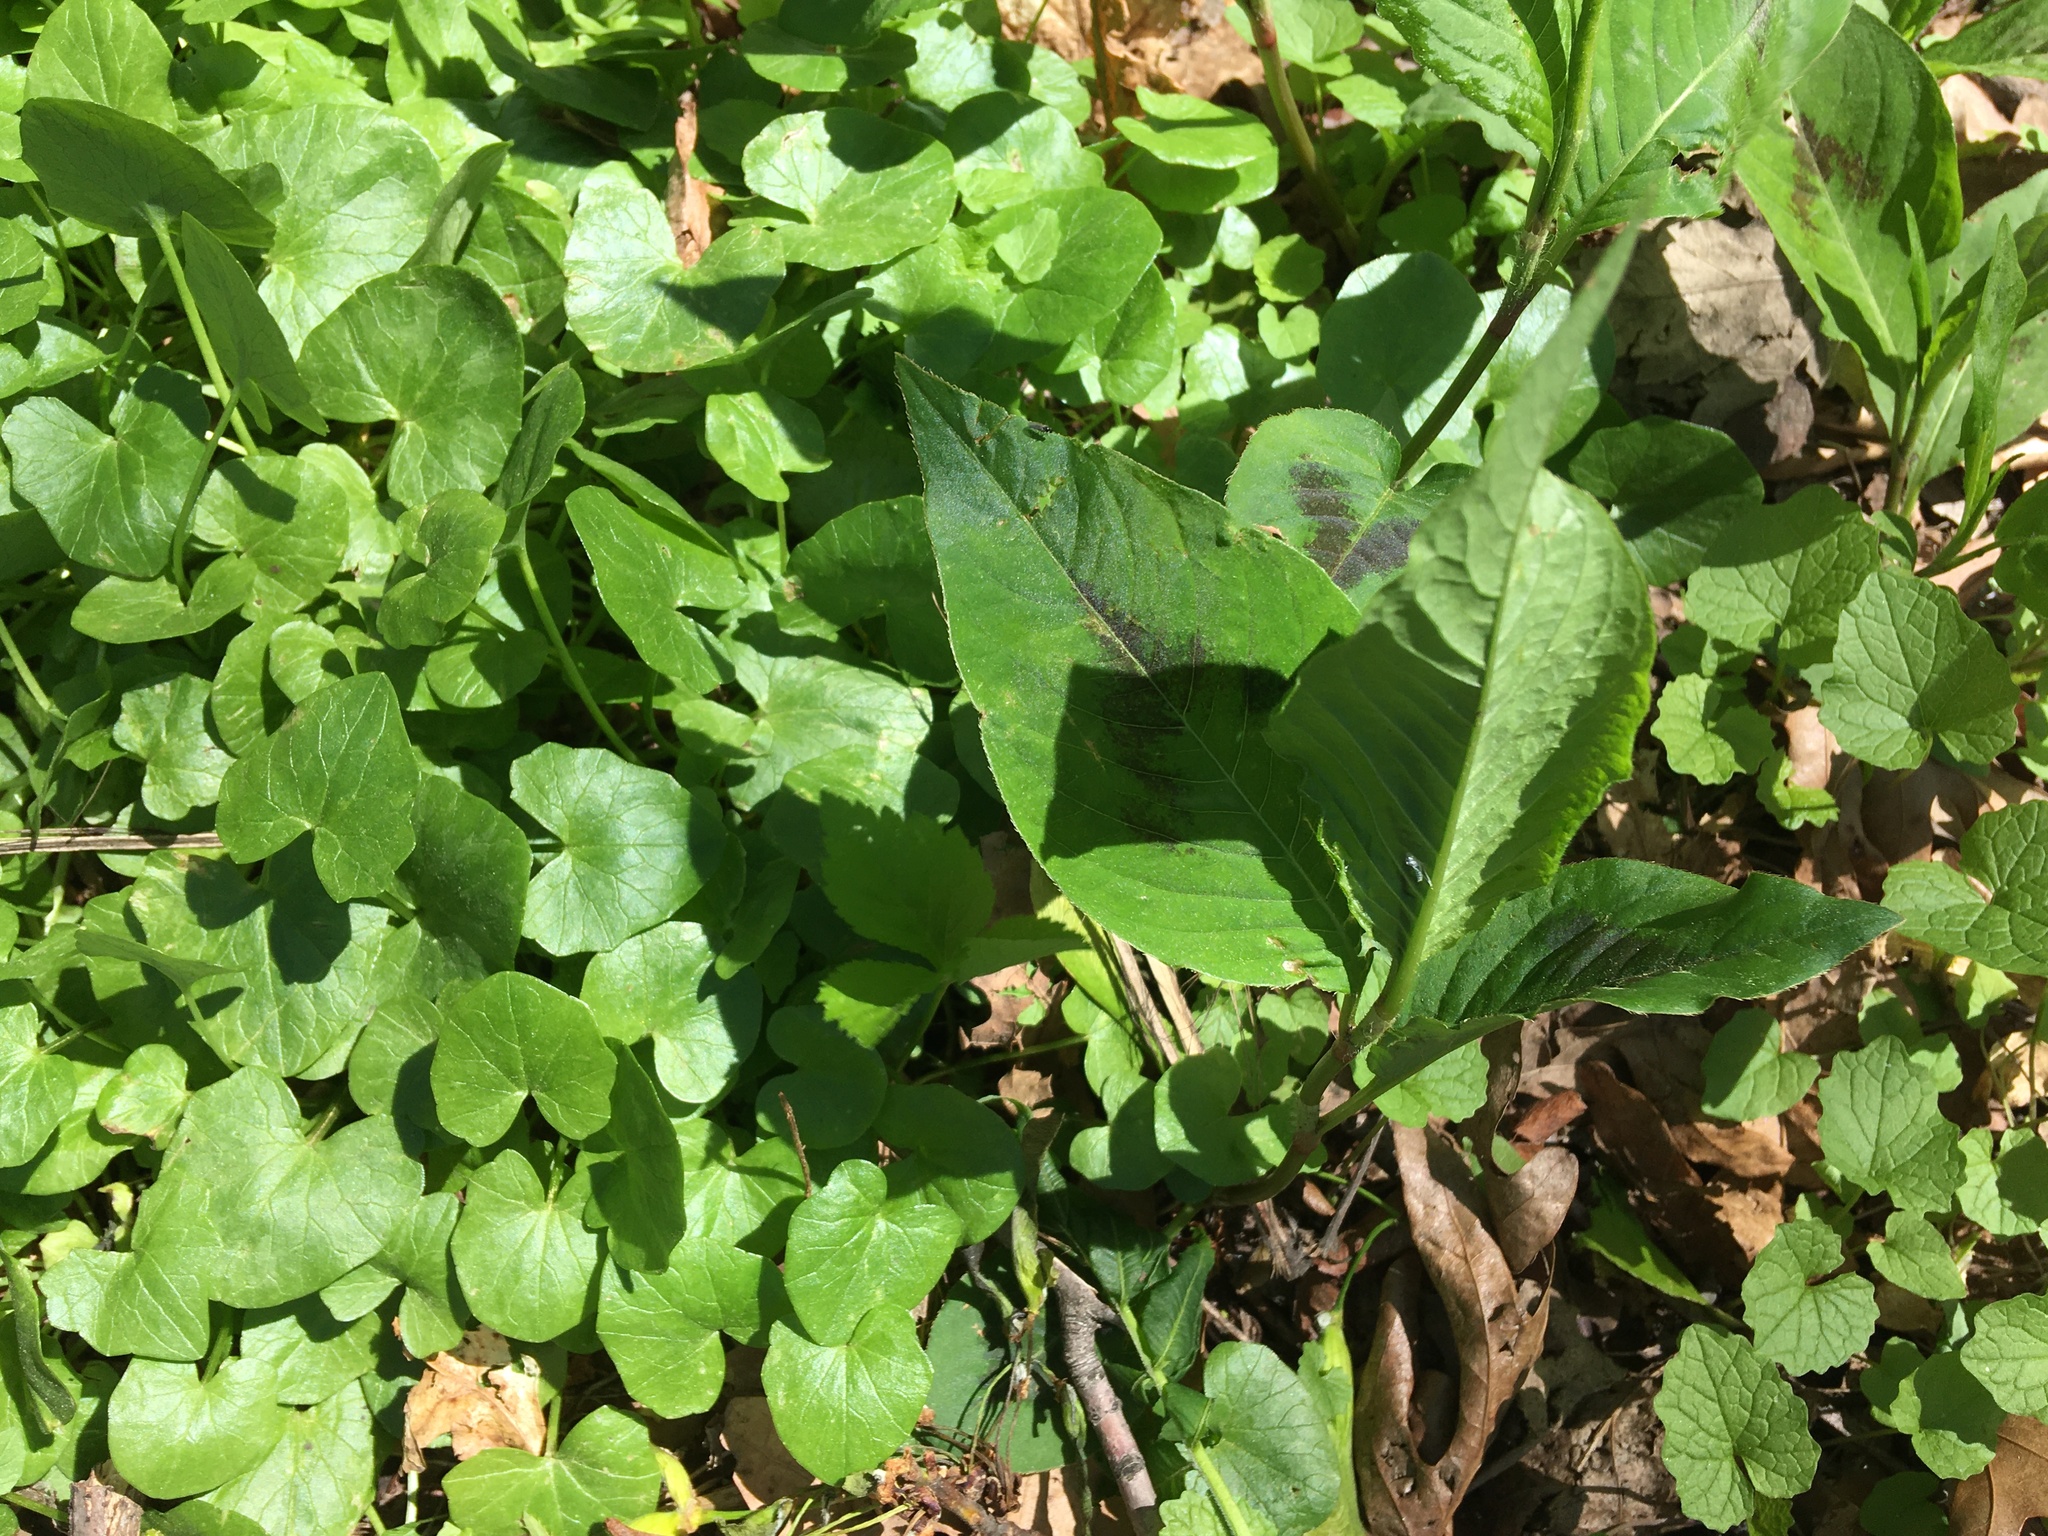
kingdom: Plantae
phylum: Tracheophyta
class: Magnoliopsida
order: Caryophyllales
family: Polygonaceae
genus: Persicaria
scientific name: Persicaria virginiana
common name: Jumpseed
